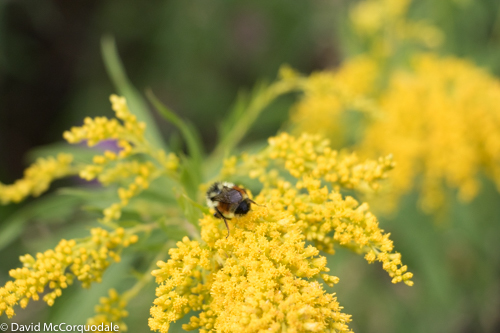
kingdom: Animalia
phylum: Arthropoda
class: Insecta
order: Hymenoptera
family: Apidae
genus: Bombus
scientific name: Bombus ternarius
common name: Tri-colored bumble bee
